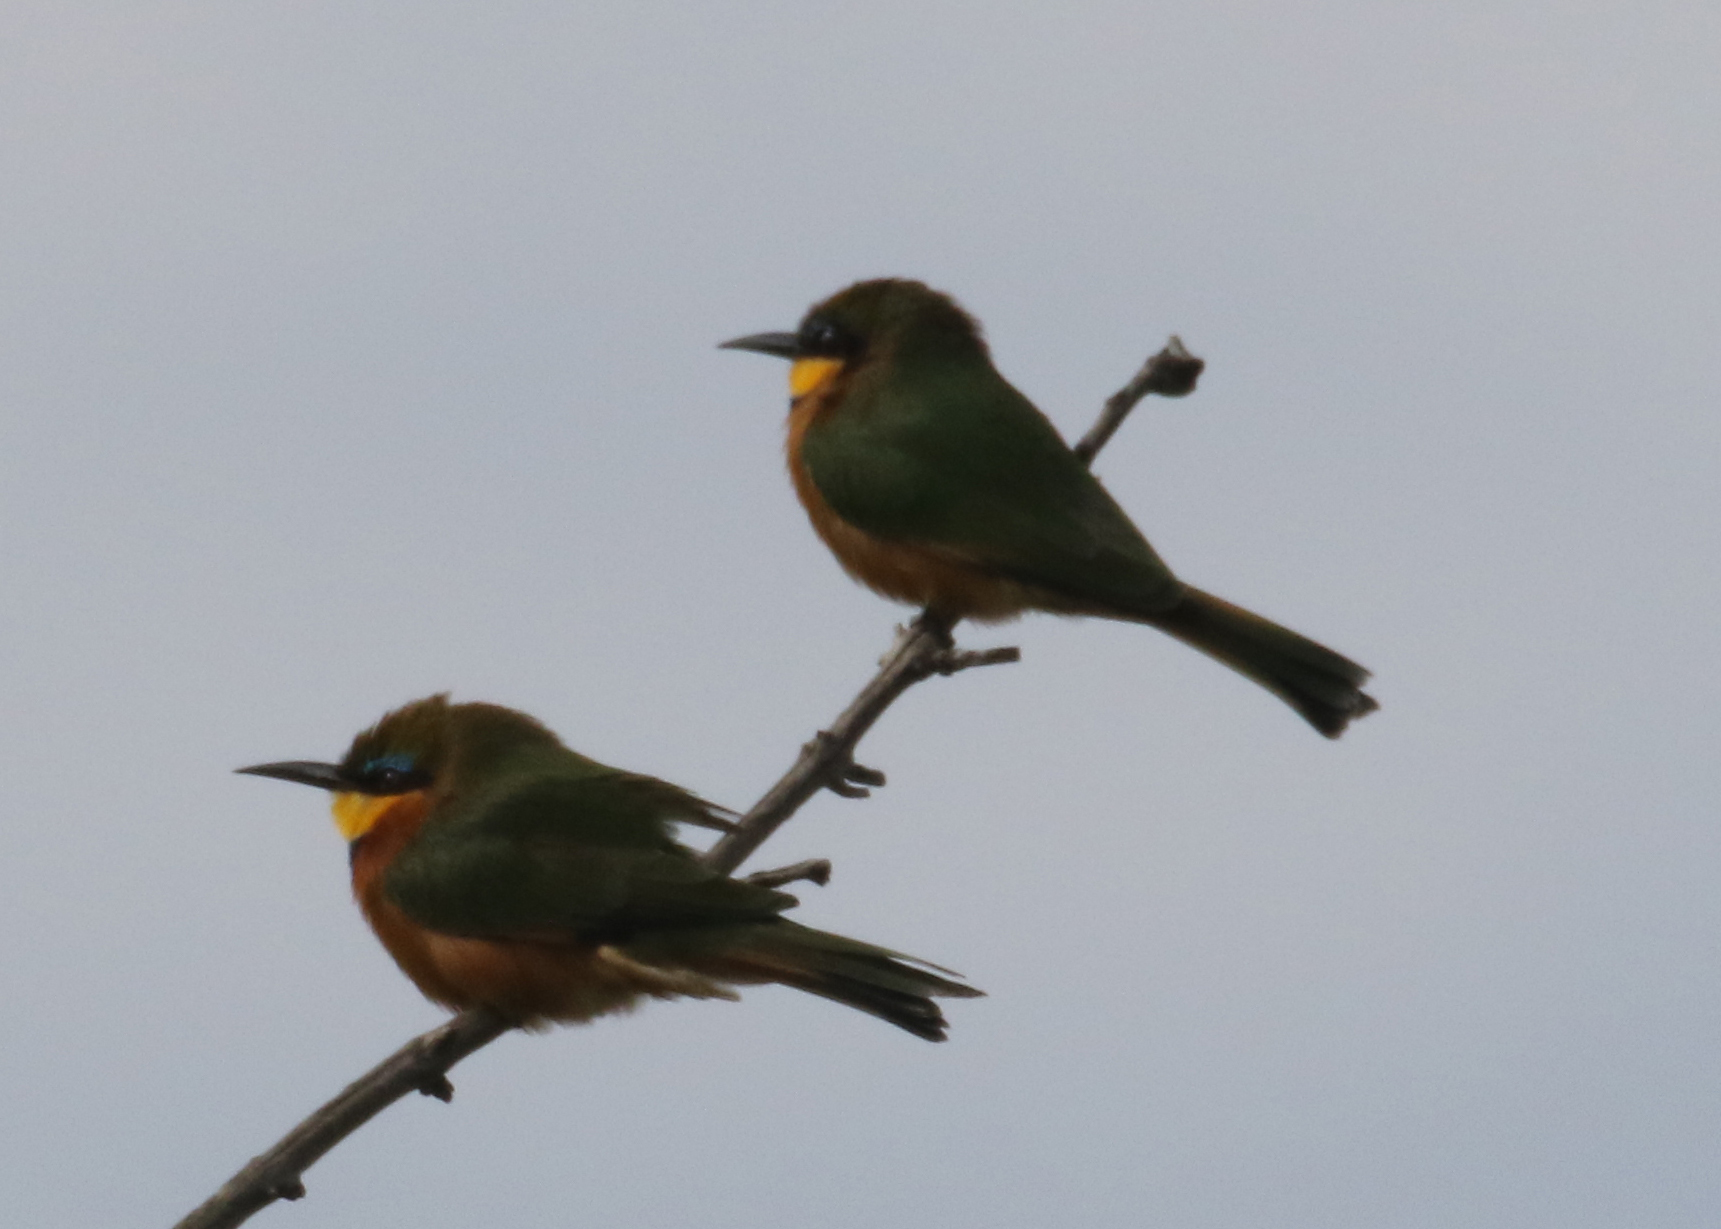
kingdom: Animalia
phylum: Chordata
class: Aves
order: Coraciiformes
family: Meropidae
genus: Merops
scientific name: Merops pusillus
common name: Little bee-eater
